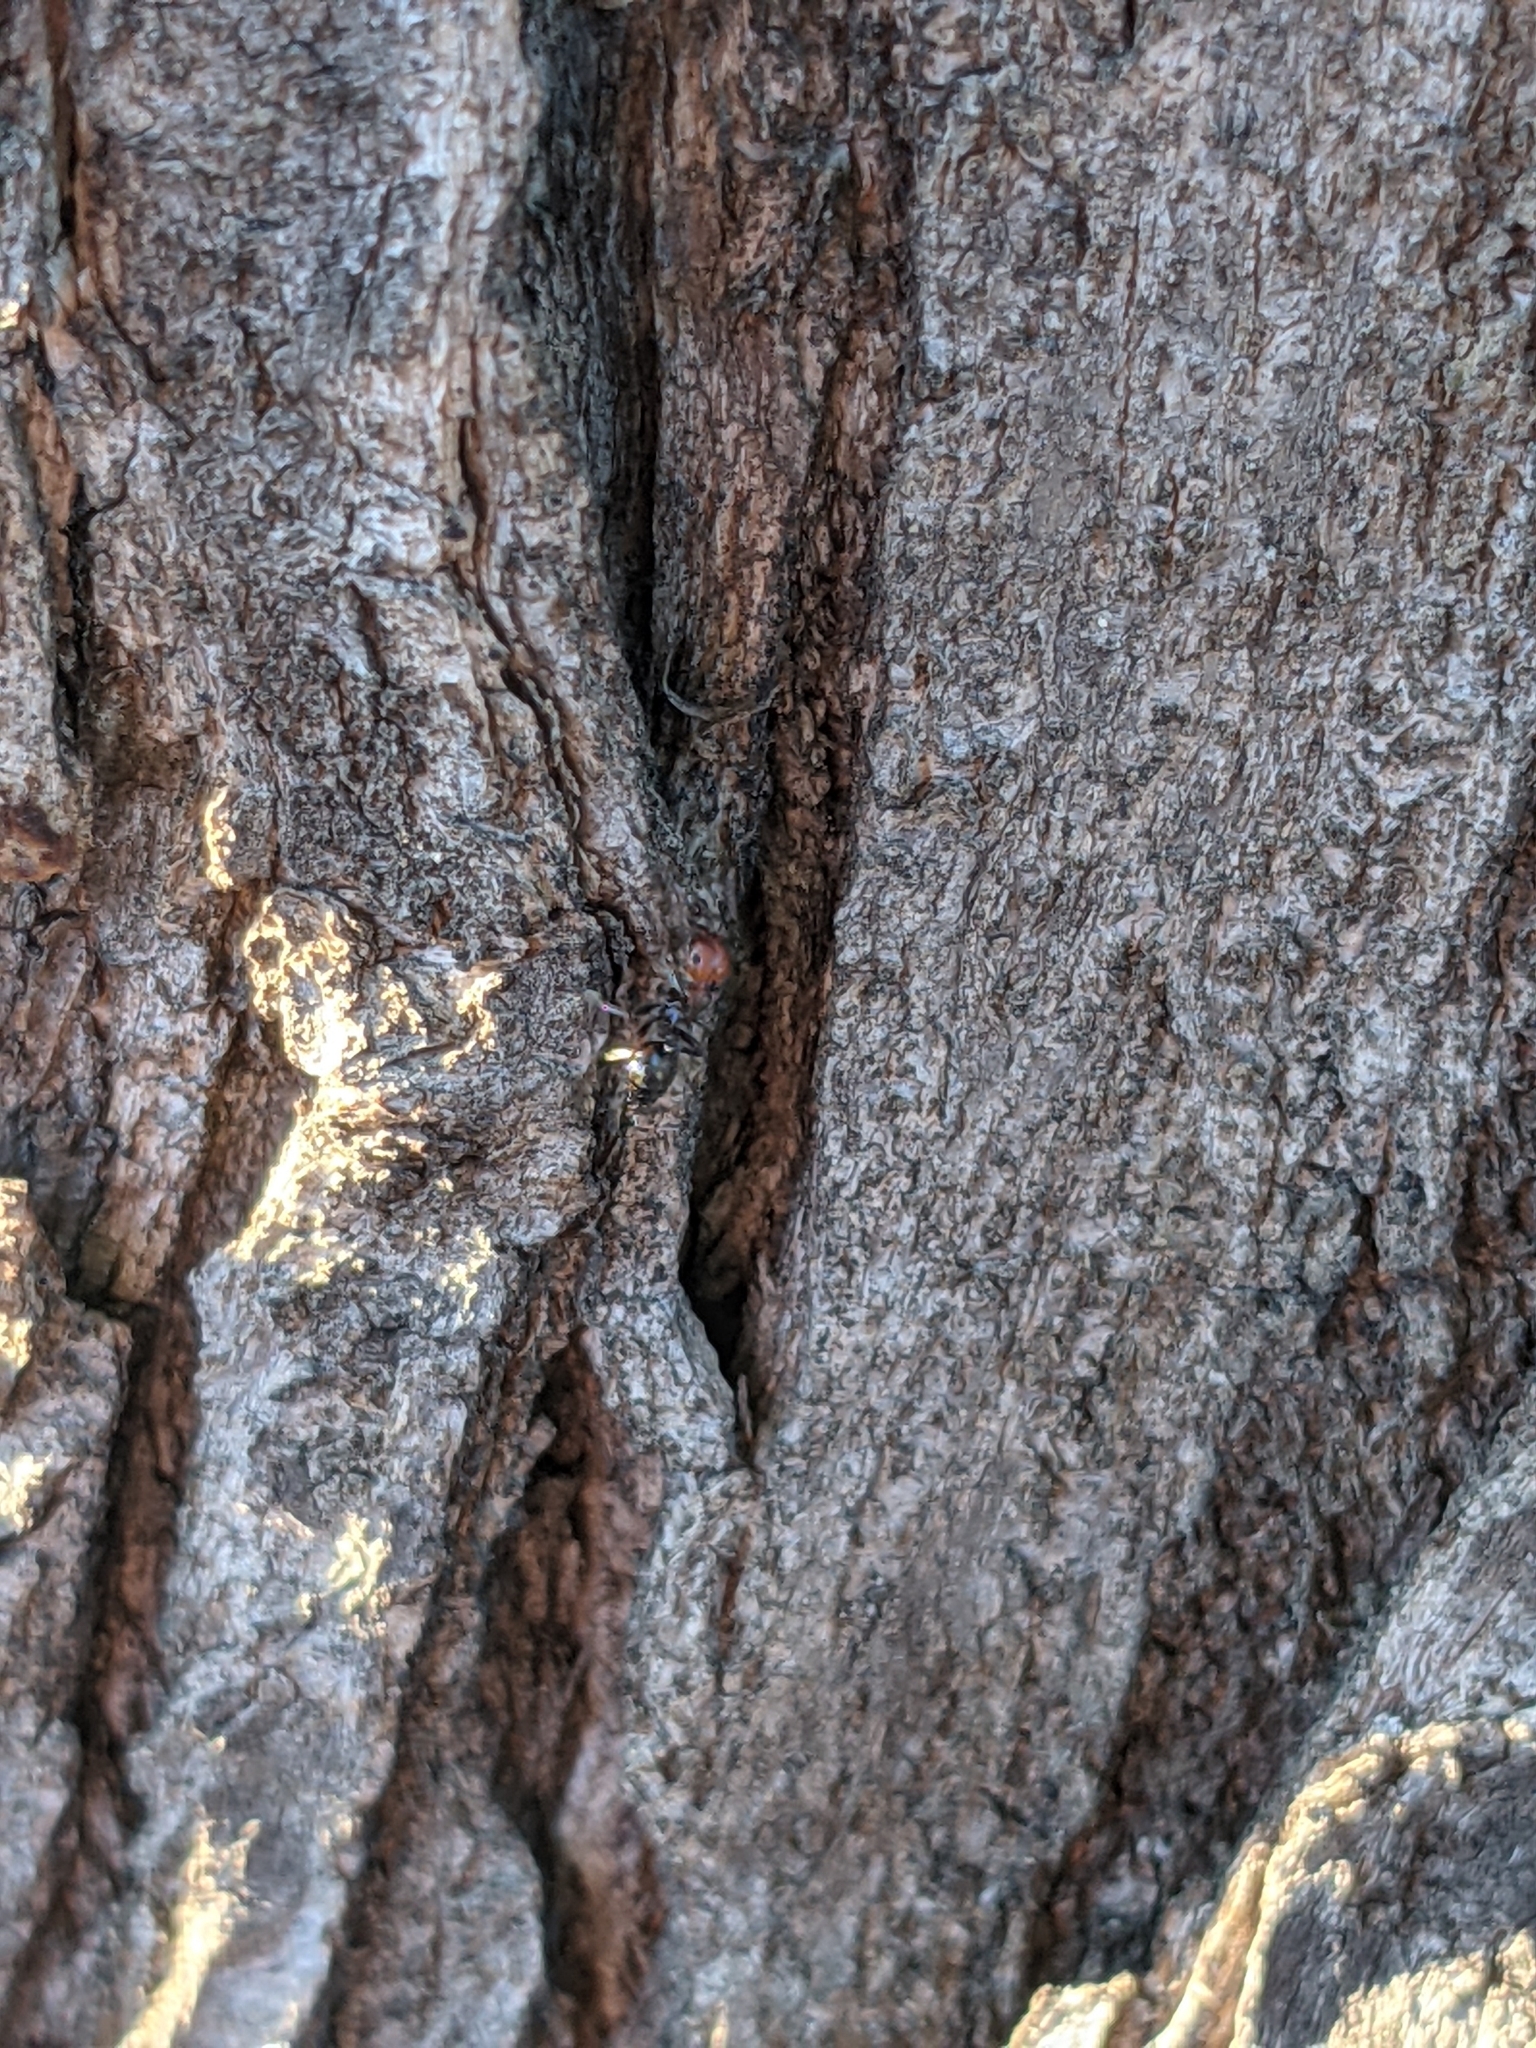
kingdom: Animalia
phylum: Arthropoda
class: Insecta
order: Hymenoptera
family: Formicidae
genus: Crematogaster
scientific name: Crematogaster scutellaris
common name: Fourmi du liège
